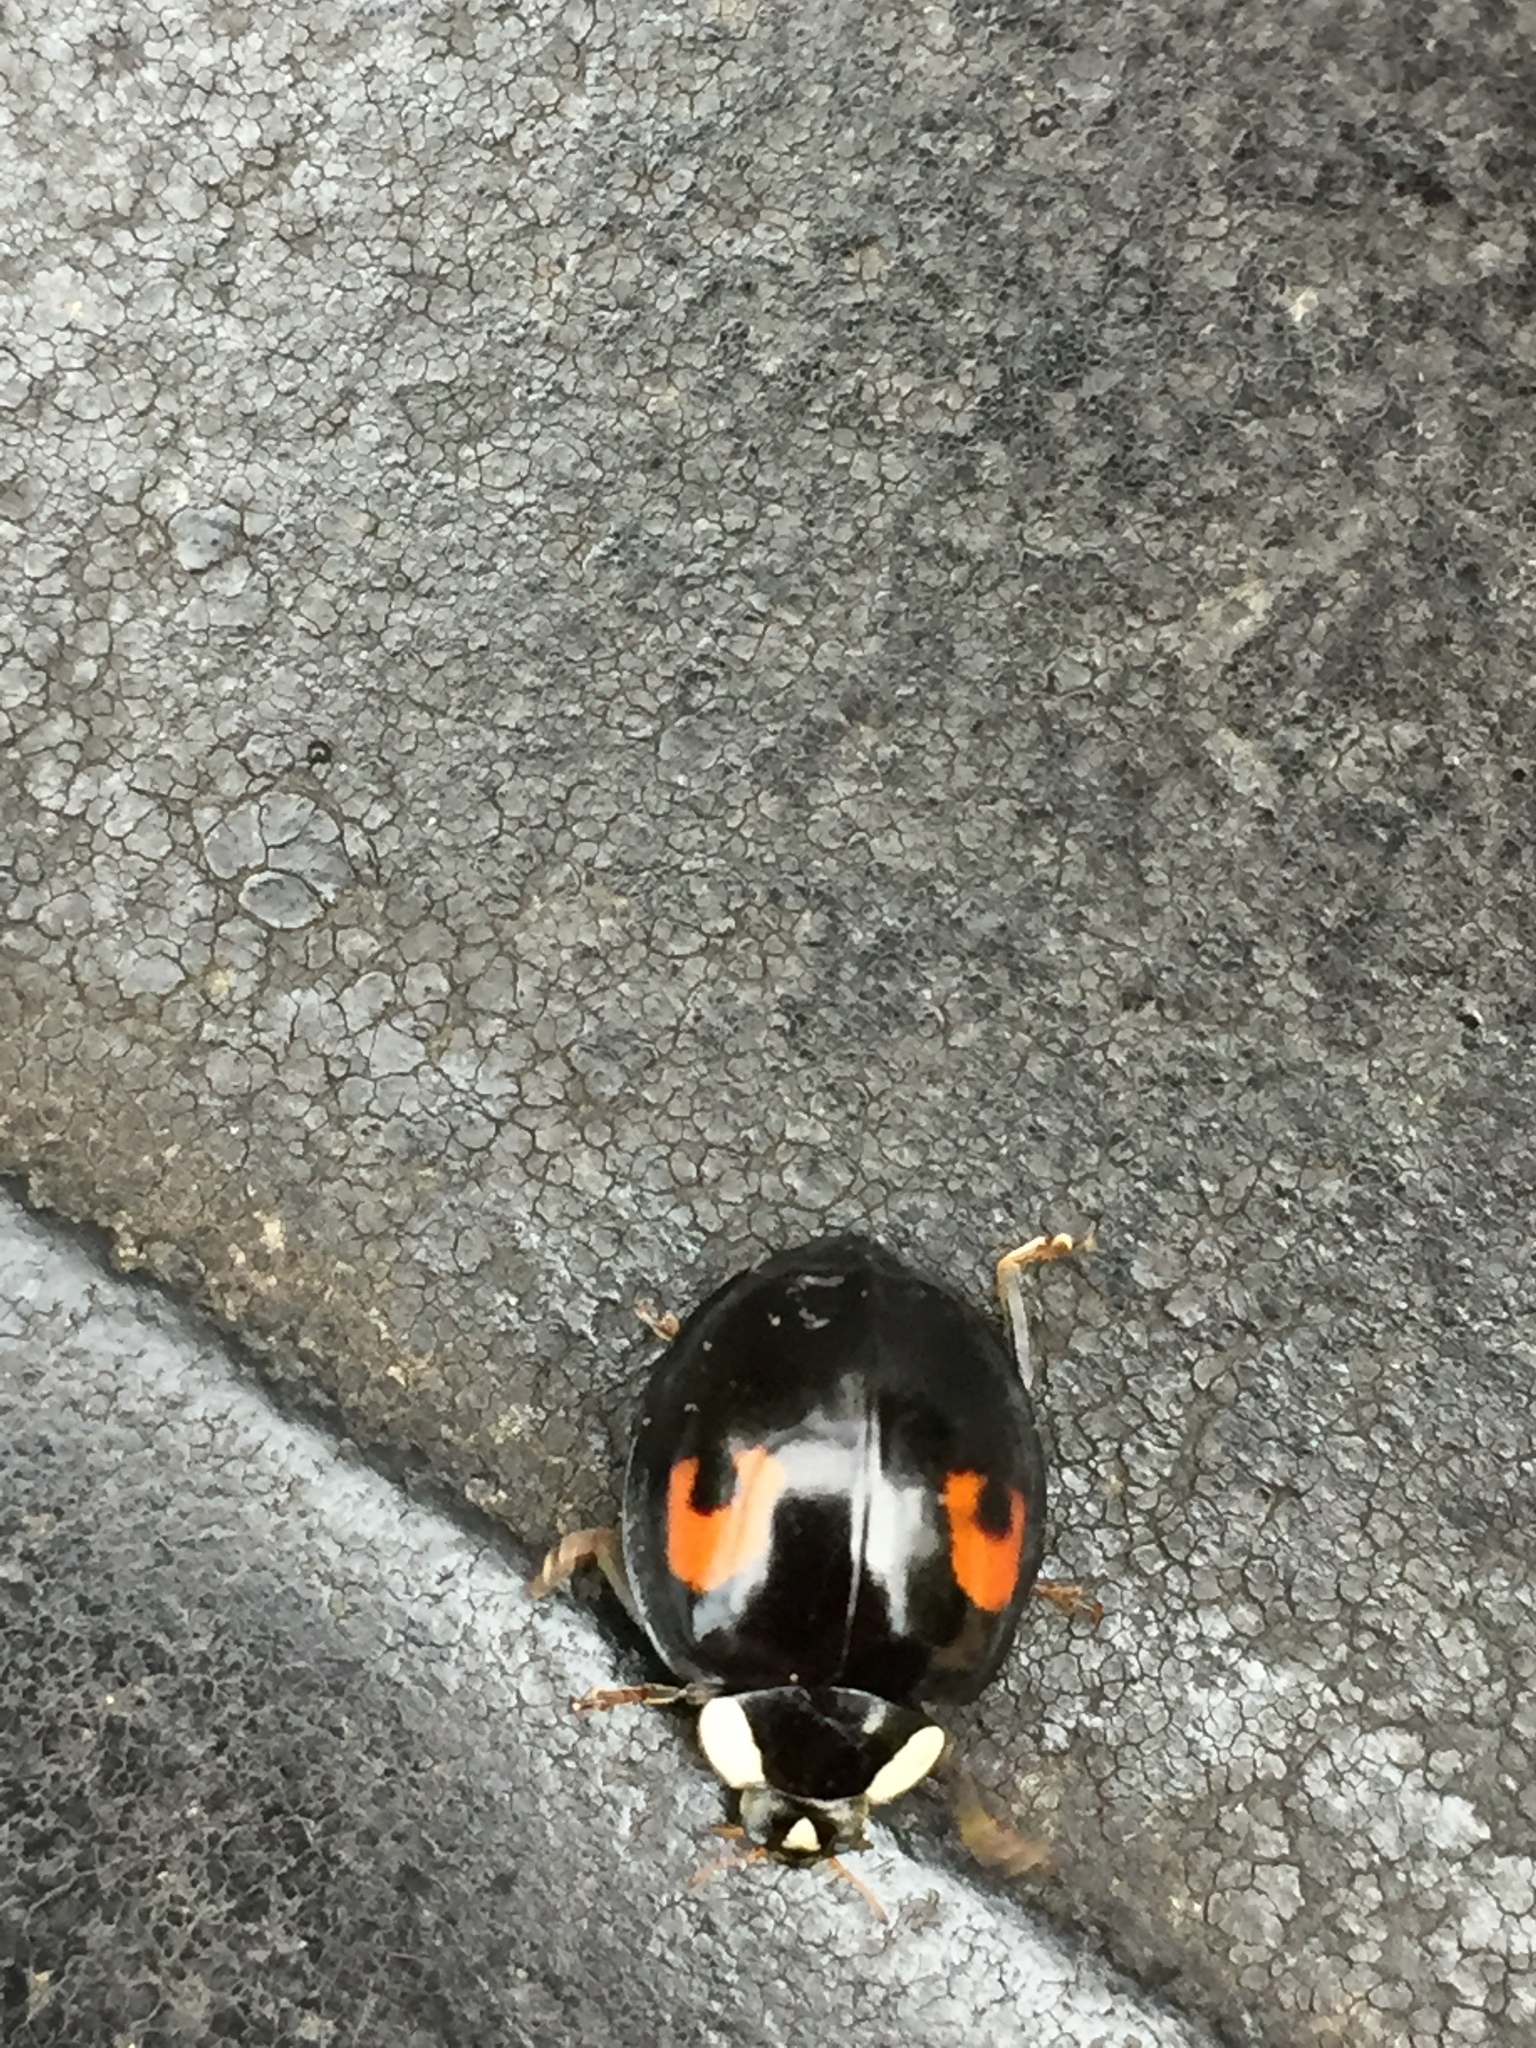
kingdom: Animalia
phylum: Arthropoda
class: Insecta
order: Coleoptera
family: Coccinellidae
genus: Harmonia
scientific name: Harmonia axyridis
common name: Harlequin ladybird
